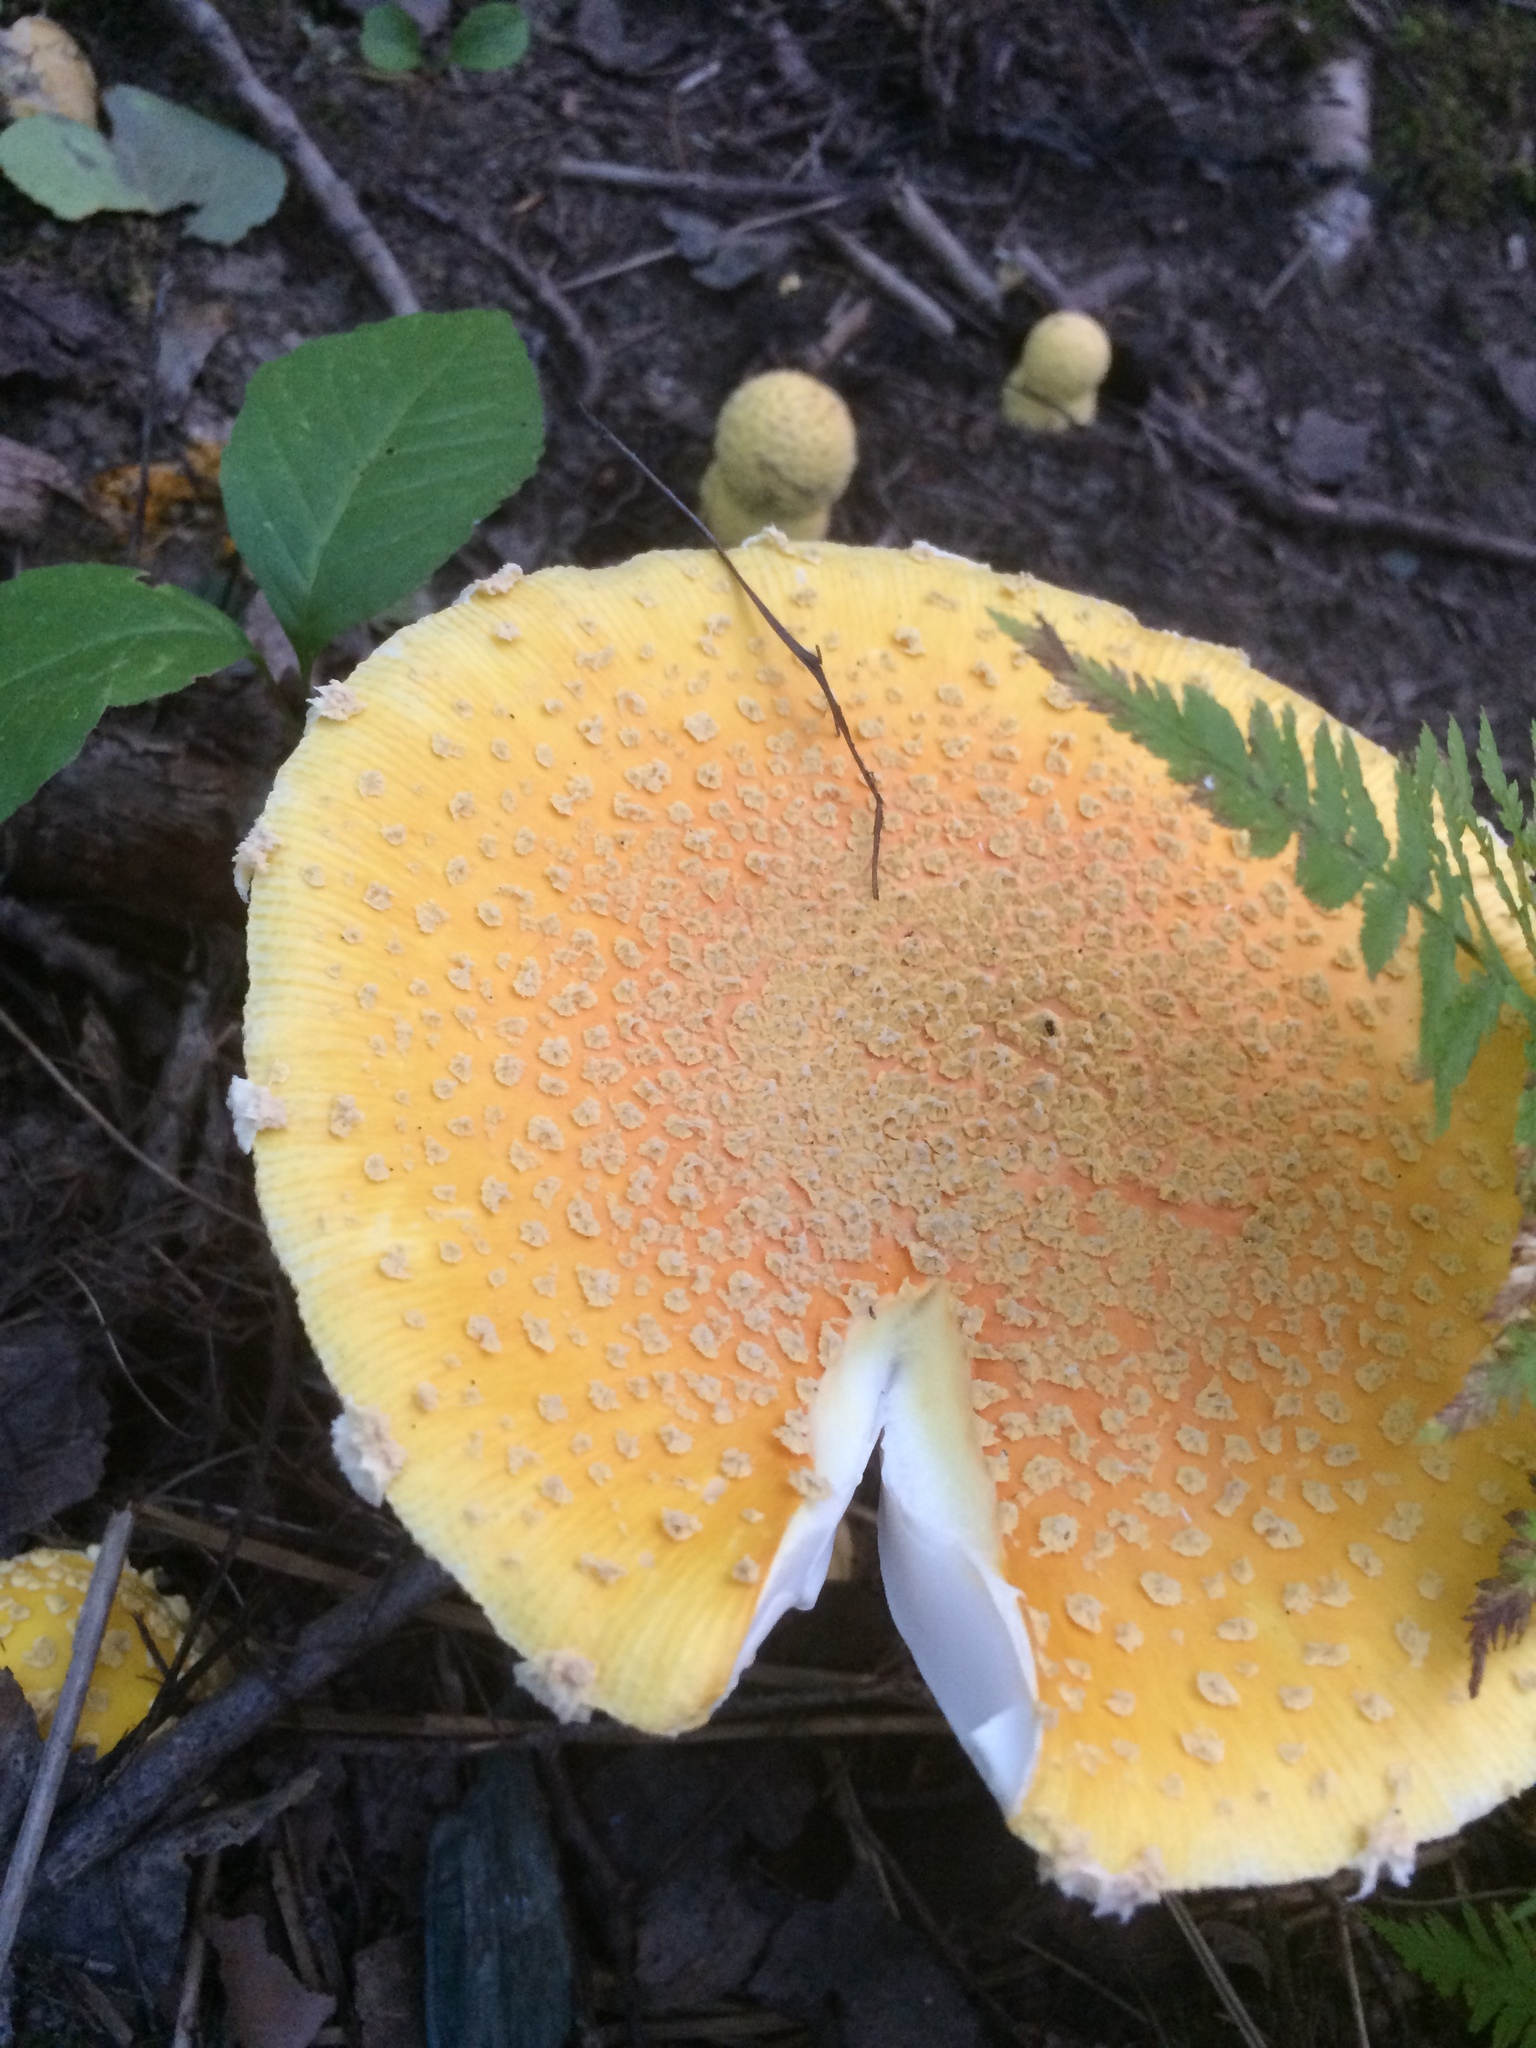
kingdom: Fungi
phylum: Basidiomycota
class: Agaricomycetes
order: Agaricales
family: Amanitaceae
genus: Amanita
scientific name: Amanita muscaria
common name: Fly agaric
